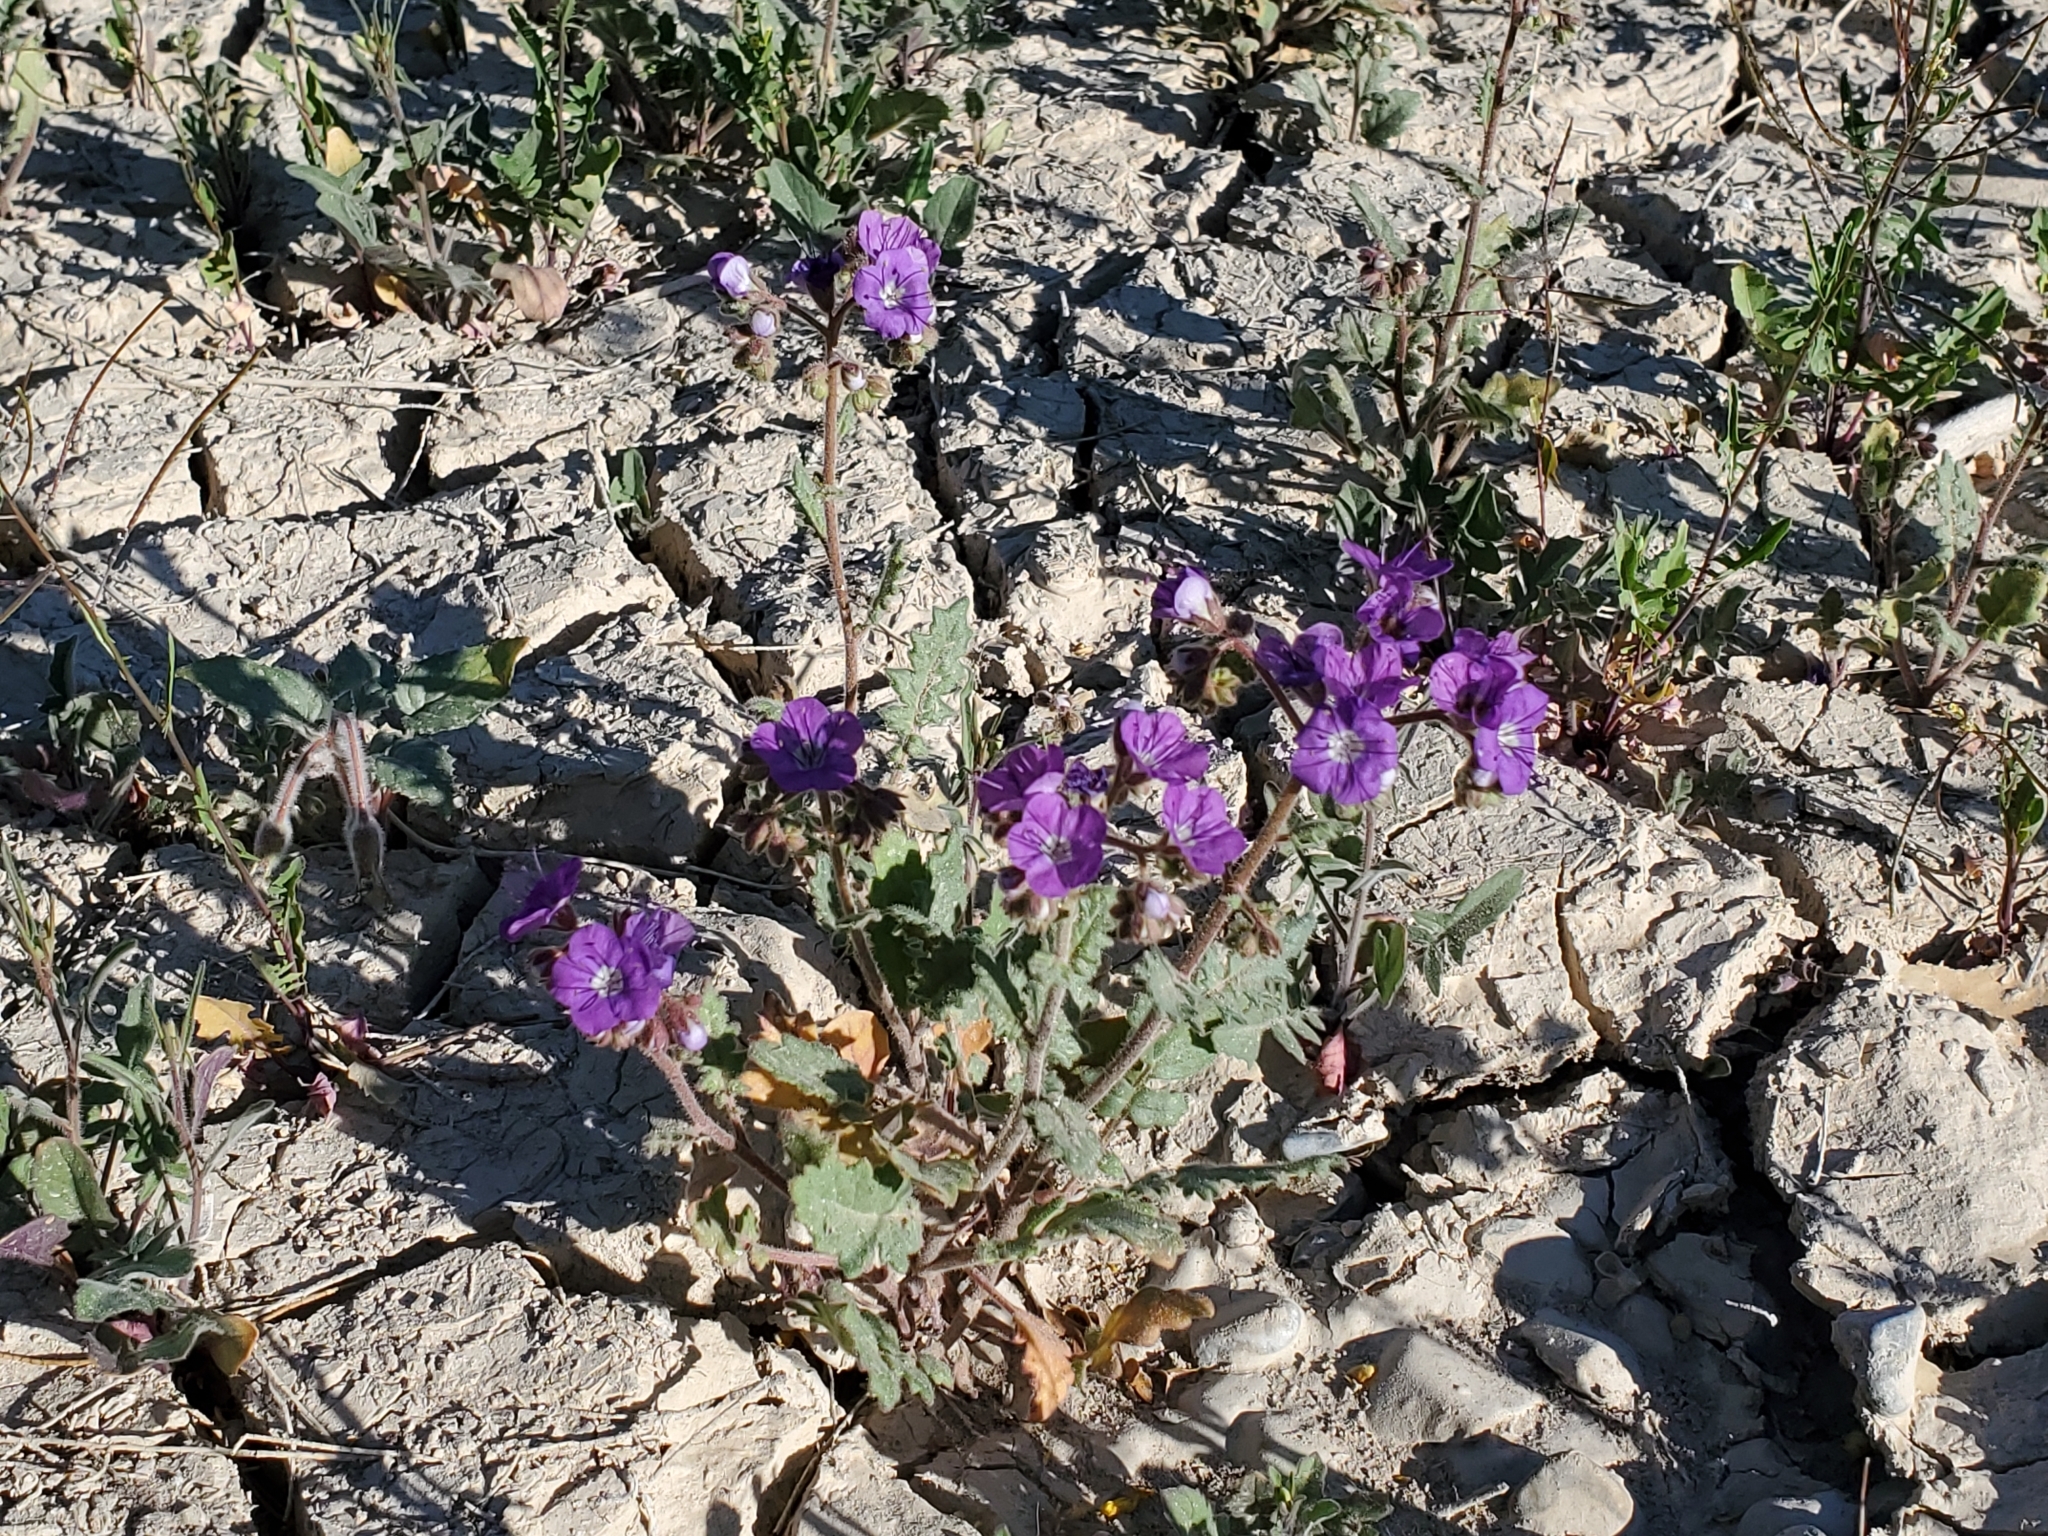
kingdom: Plantae
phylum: Tracheophyta
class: Magnoliopsida
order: Boraginales
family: Hydrophyllaceae
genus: Phacelia
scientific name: Phacelia crenulata
